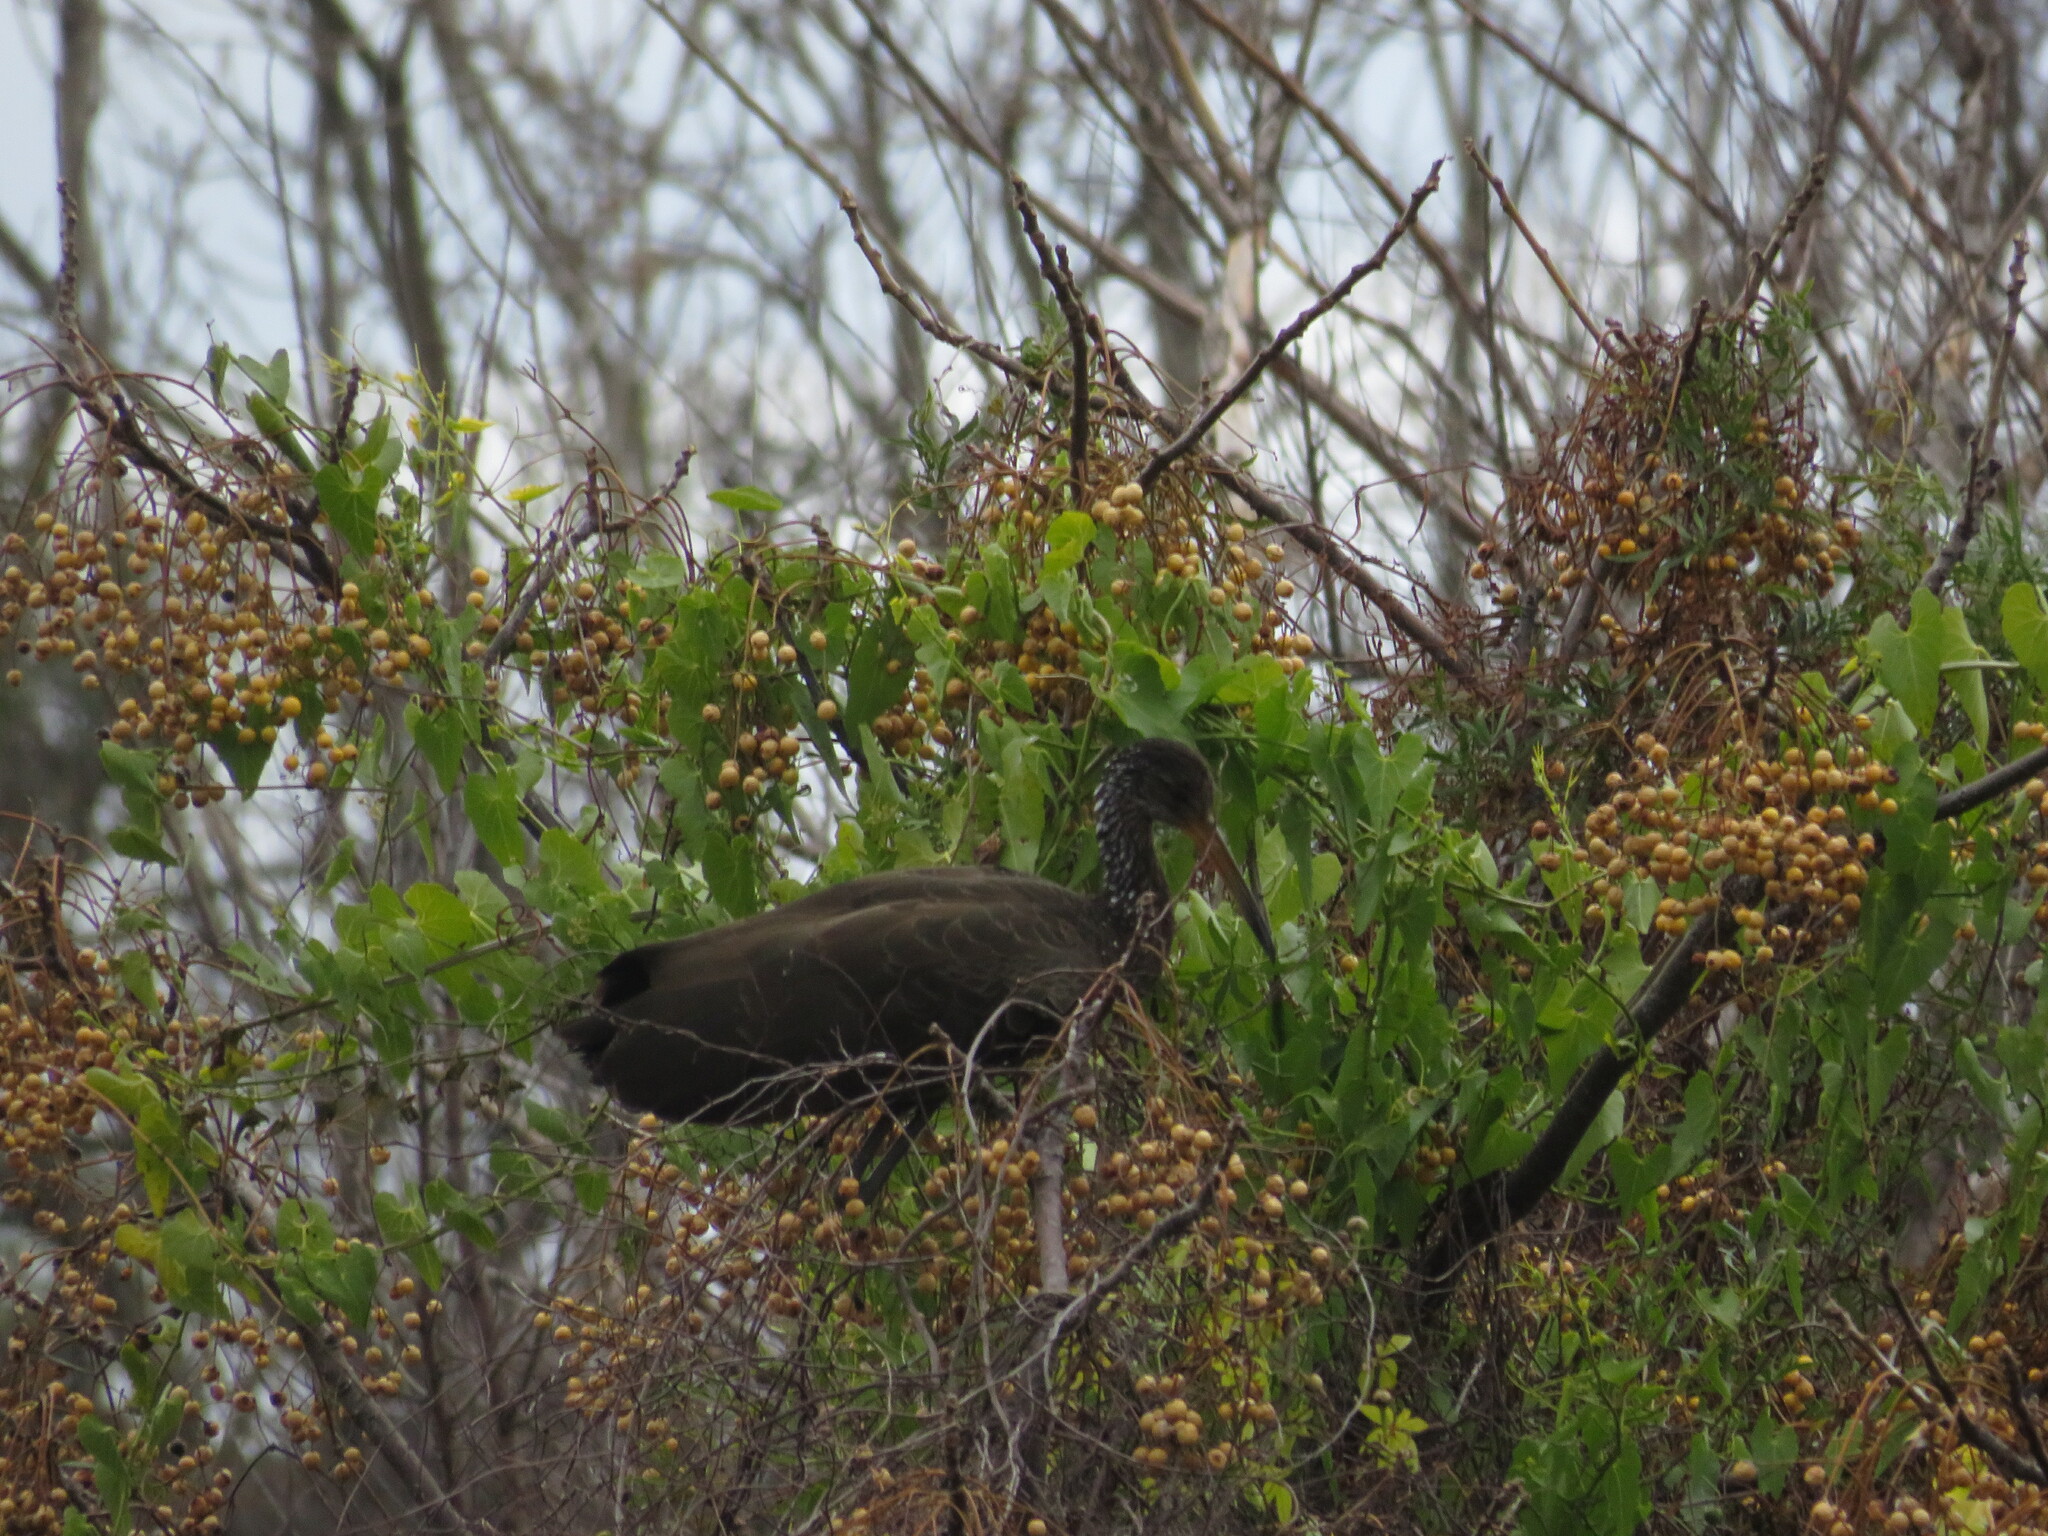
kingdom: Animalia
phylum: Chordata
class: Aves
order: Gruiformes
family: Aramidae
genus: Aramus
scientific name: Aramus guarauna
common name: Limpkin
